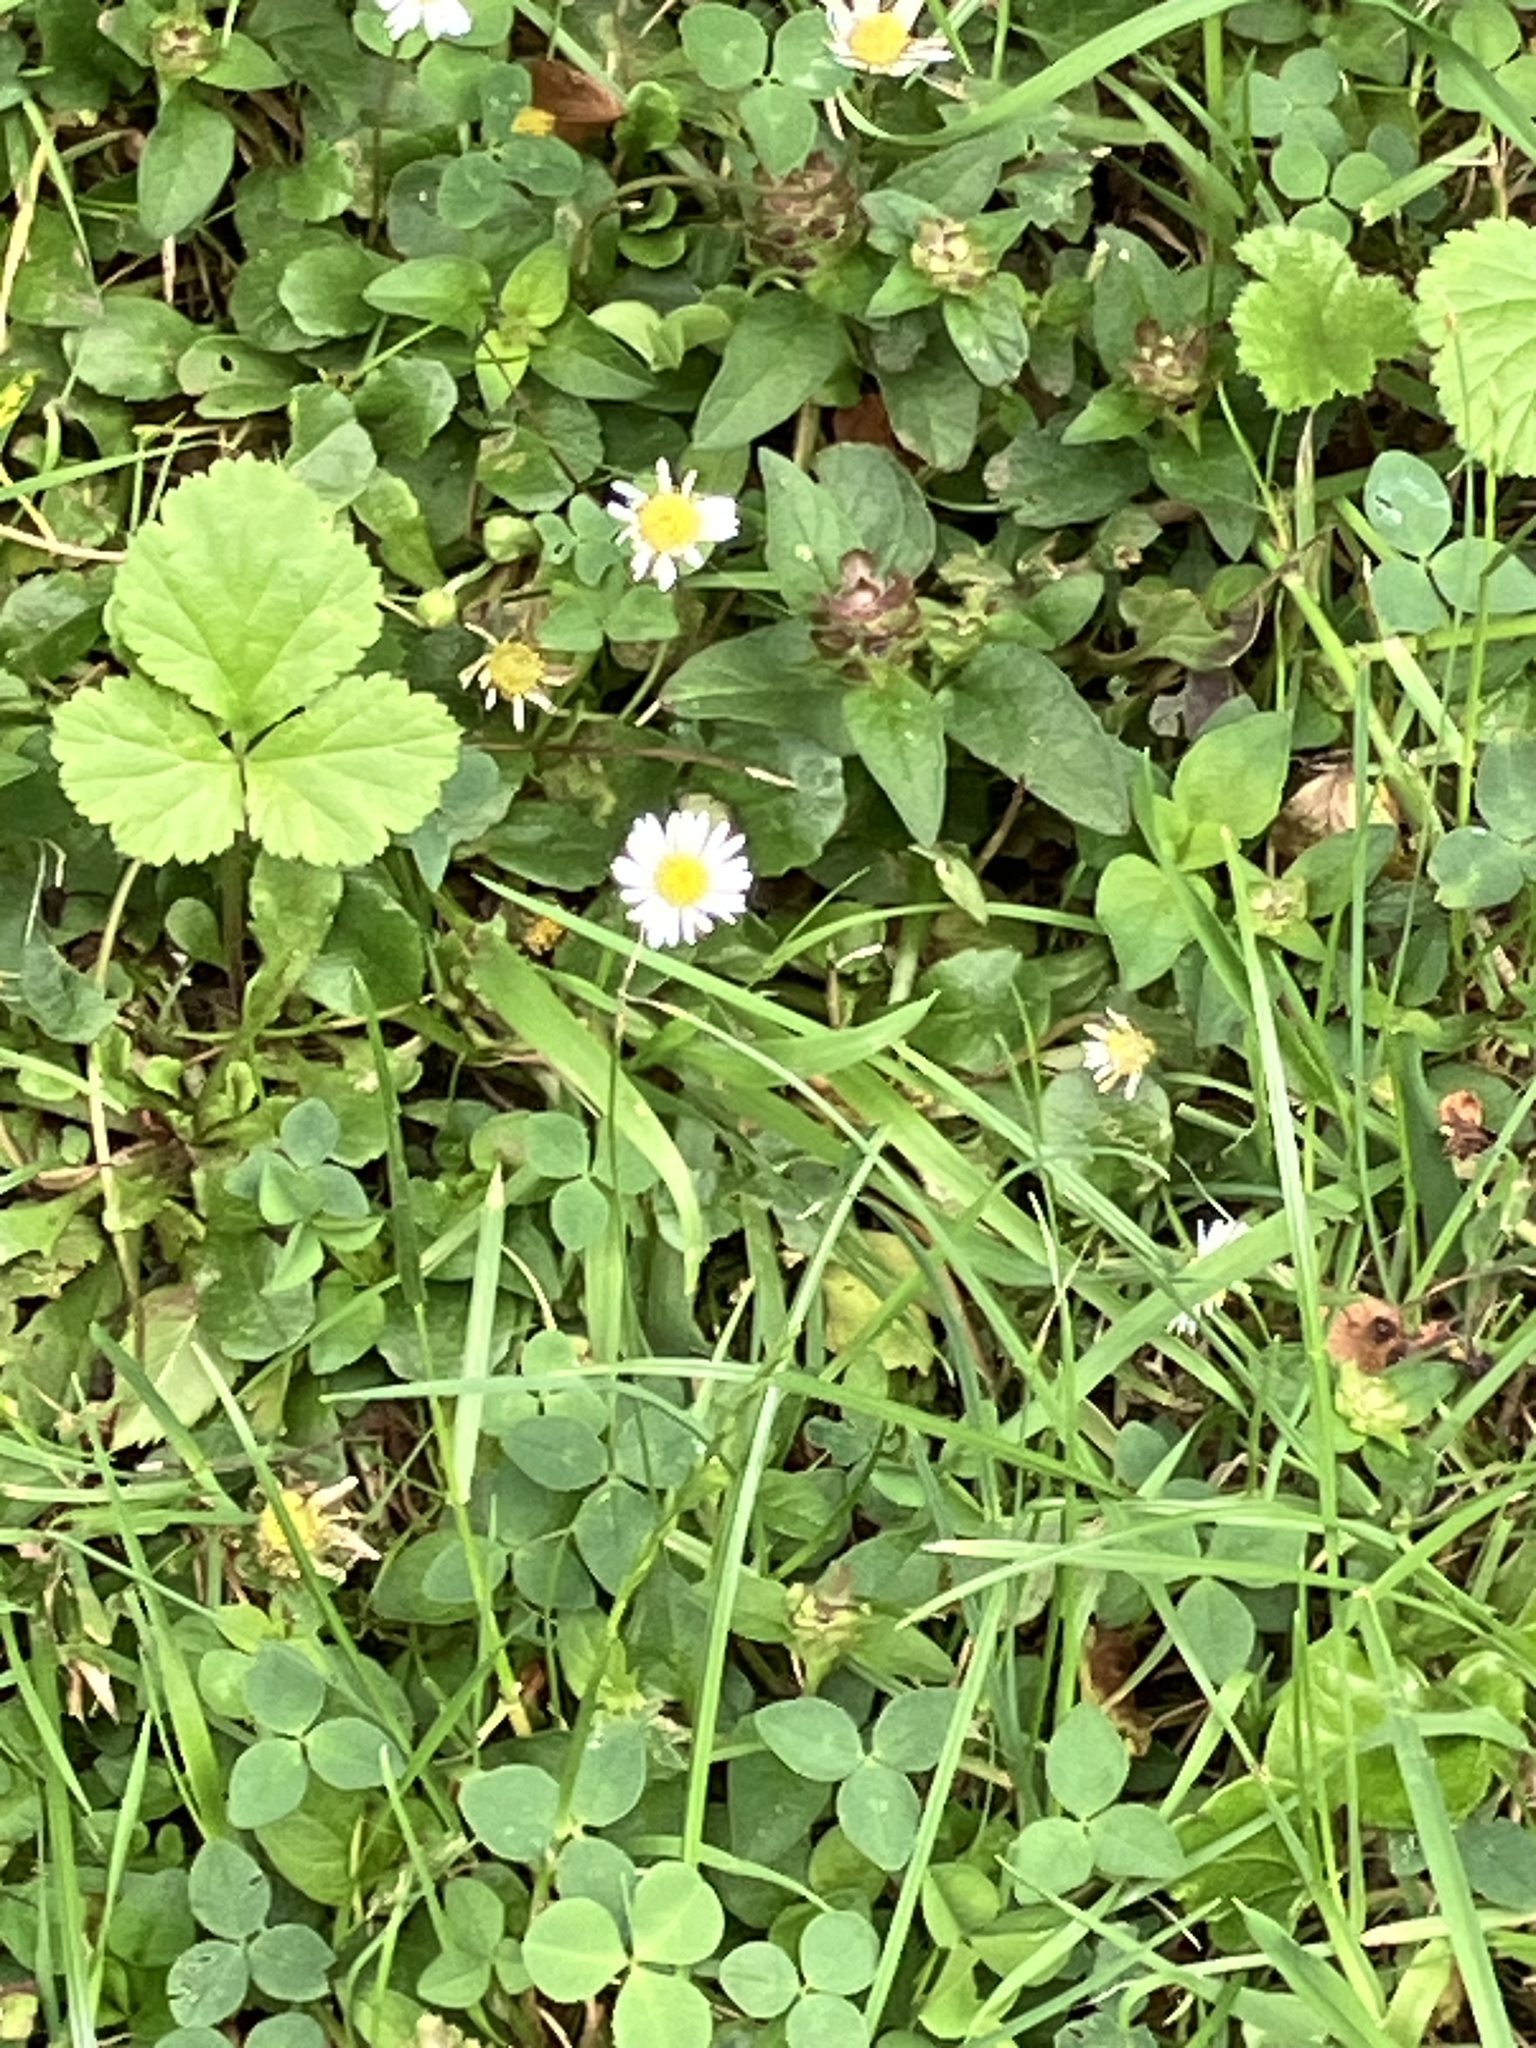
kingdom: Plantae
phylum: Tracheophyta
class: Magnoliopsida
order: Asterales
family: Asteraceae
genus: Bellis
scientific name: Bellis perennis
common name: Lawndaisy
